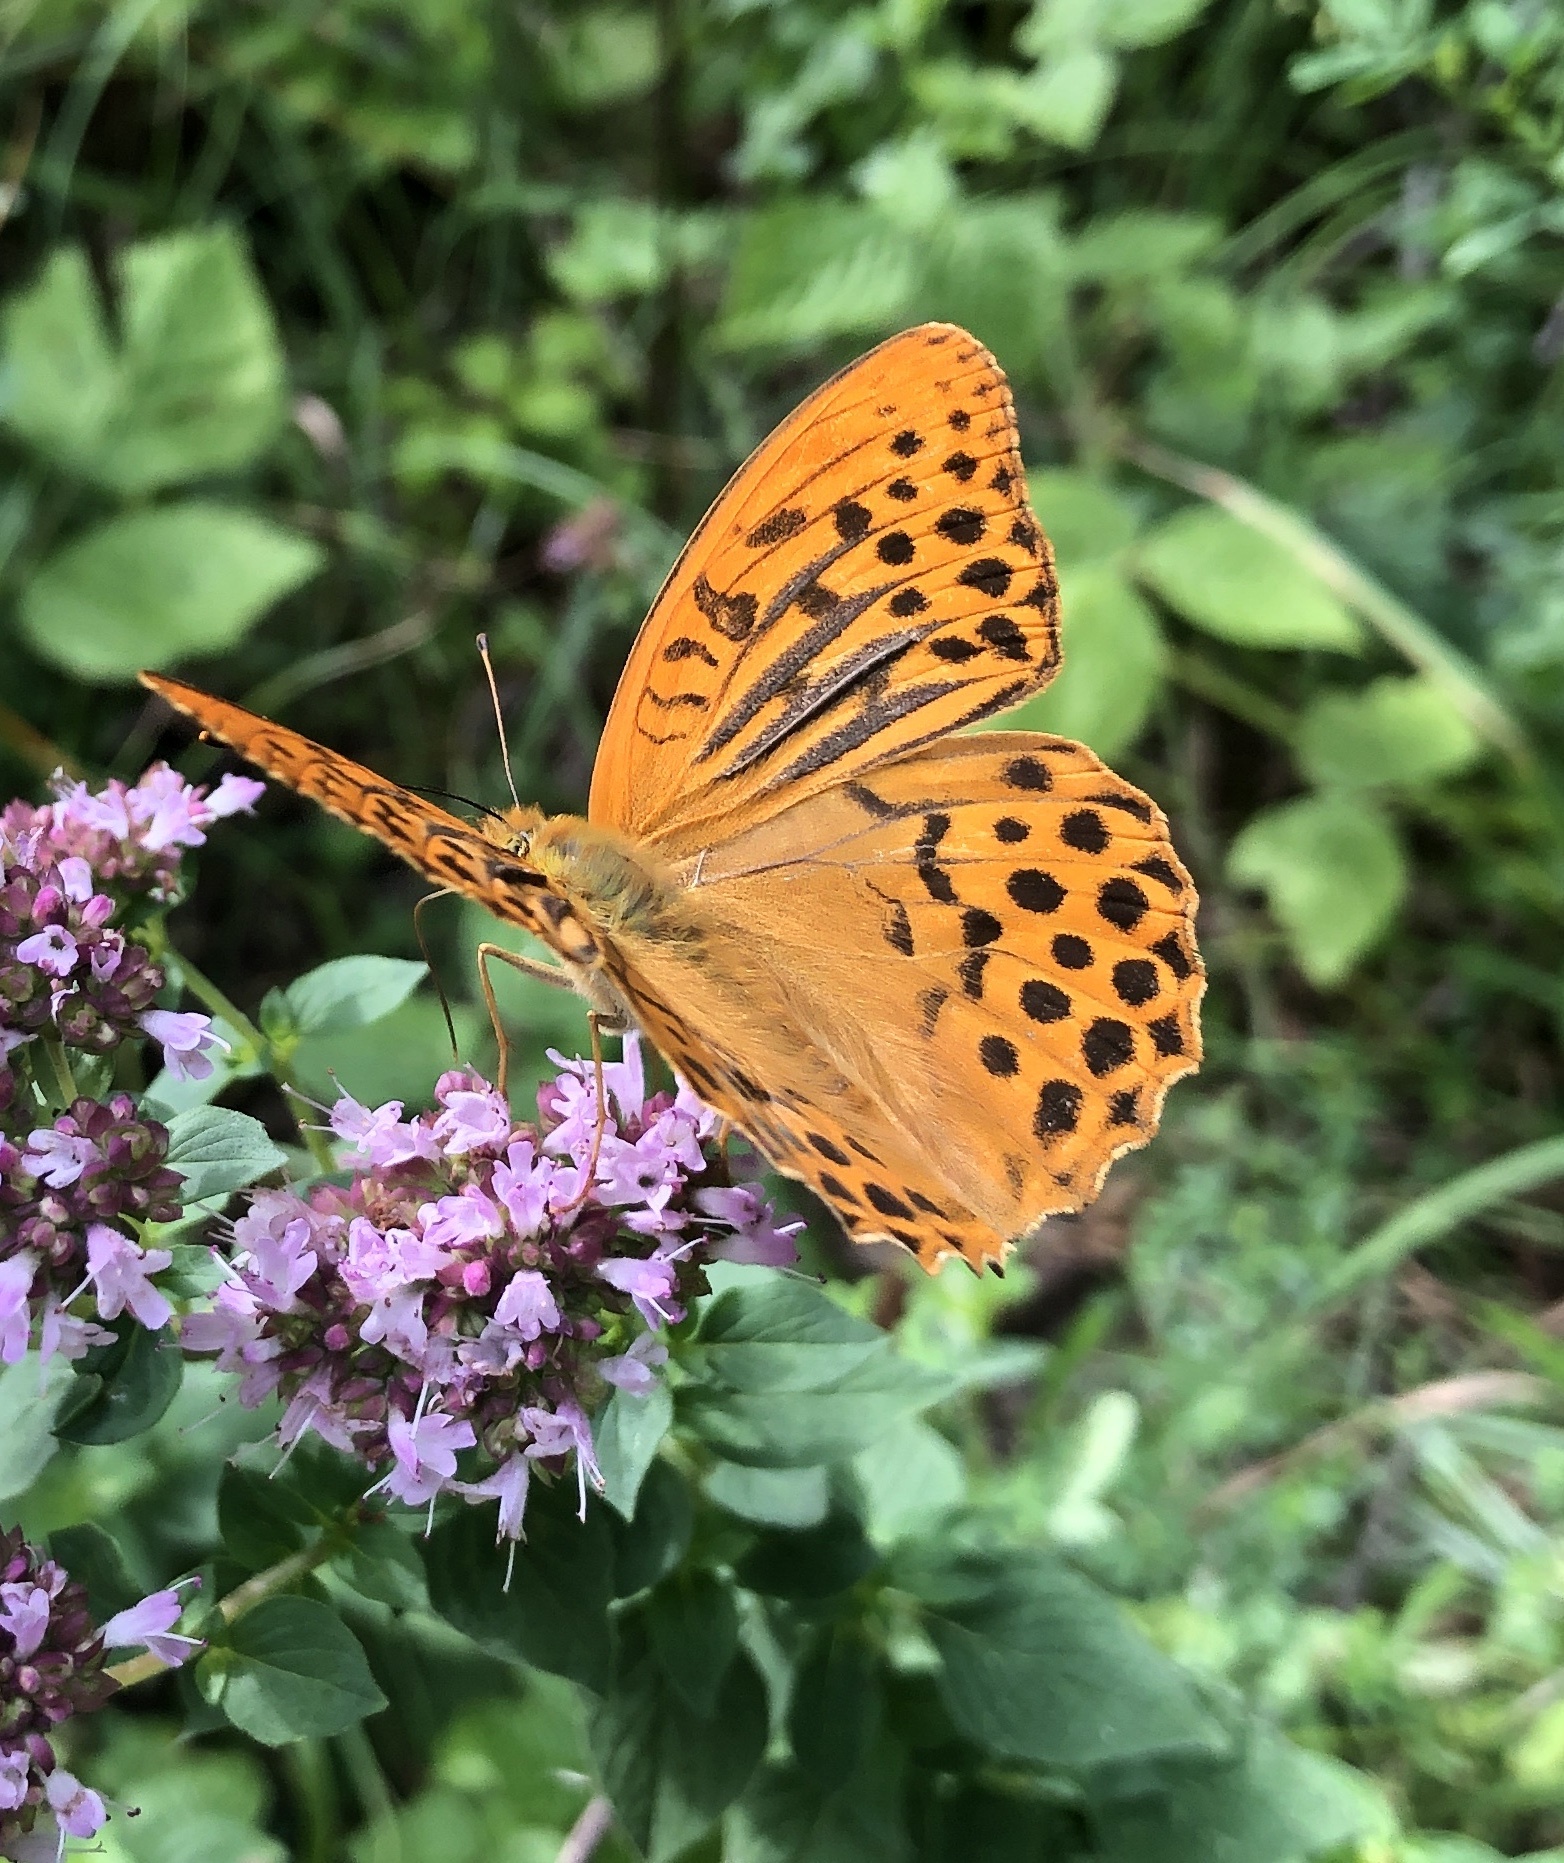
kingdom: Animalia
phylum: Arthropoda
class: Insecta
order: Lepidoptera
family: Nymphalidae
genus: Argynnis
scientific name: Argynnis paphia
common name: Silver-washed fritillary
